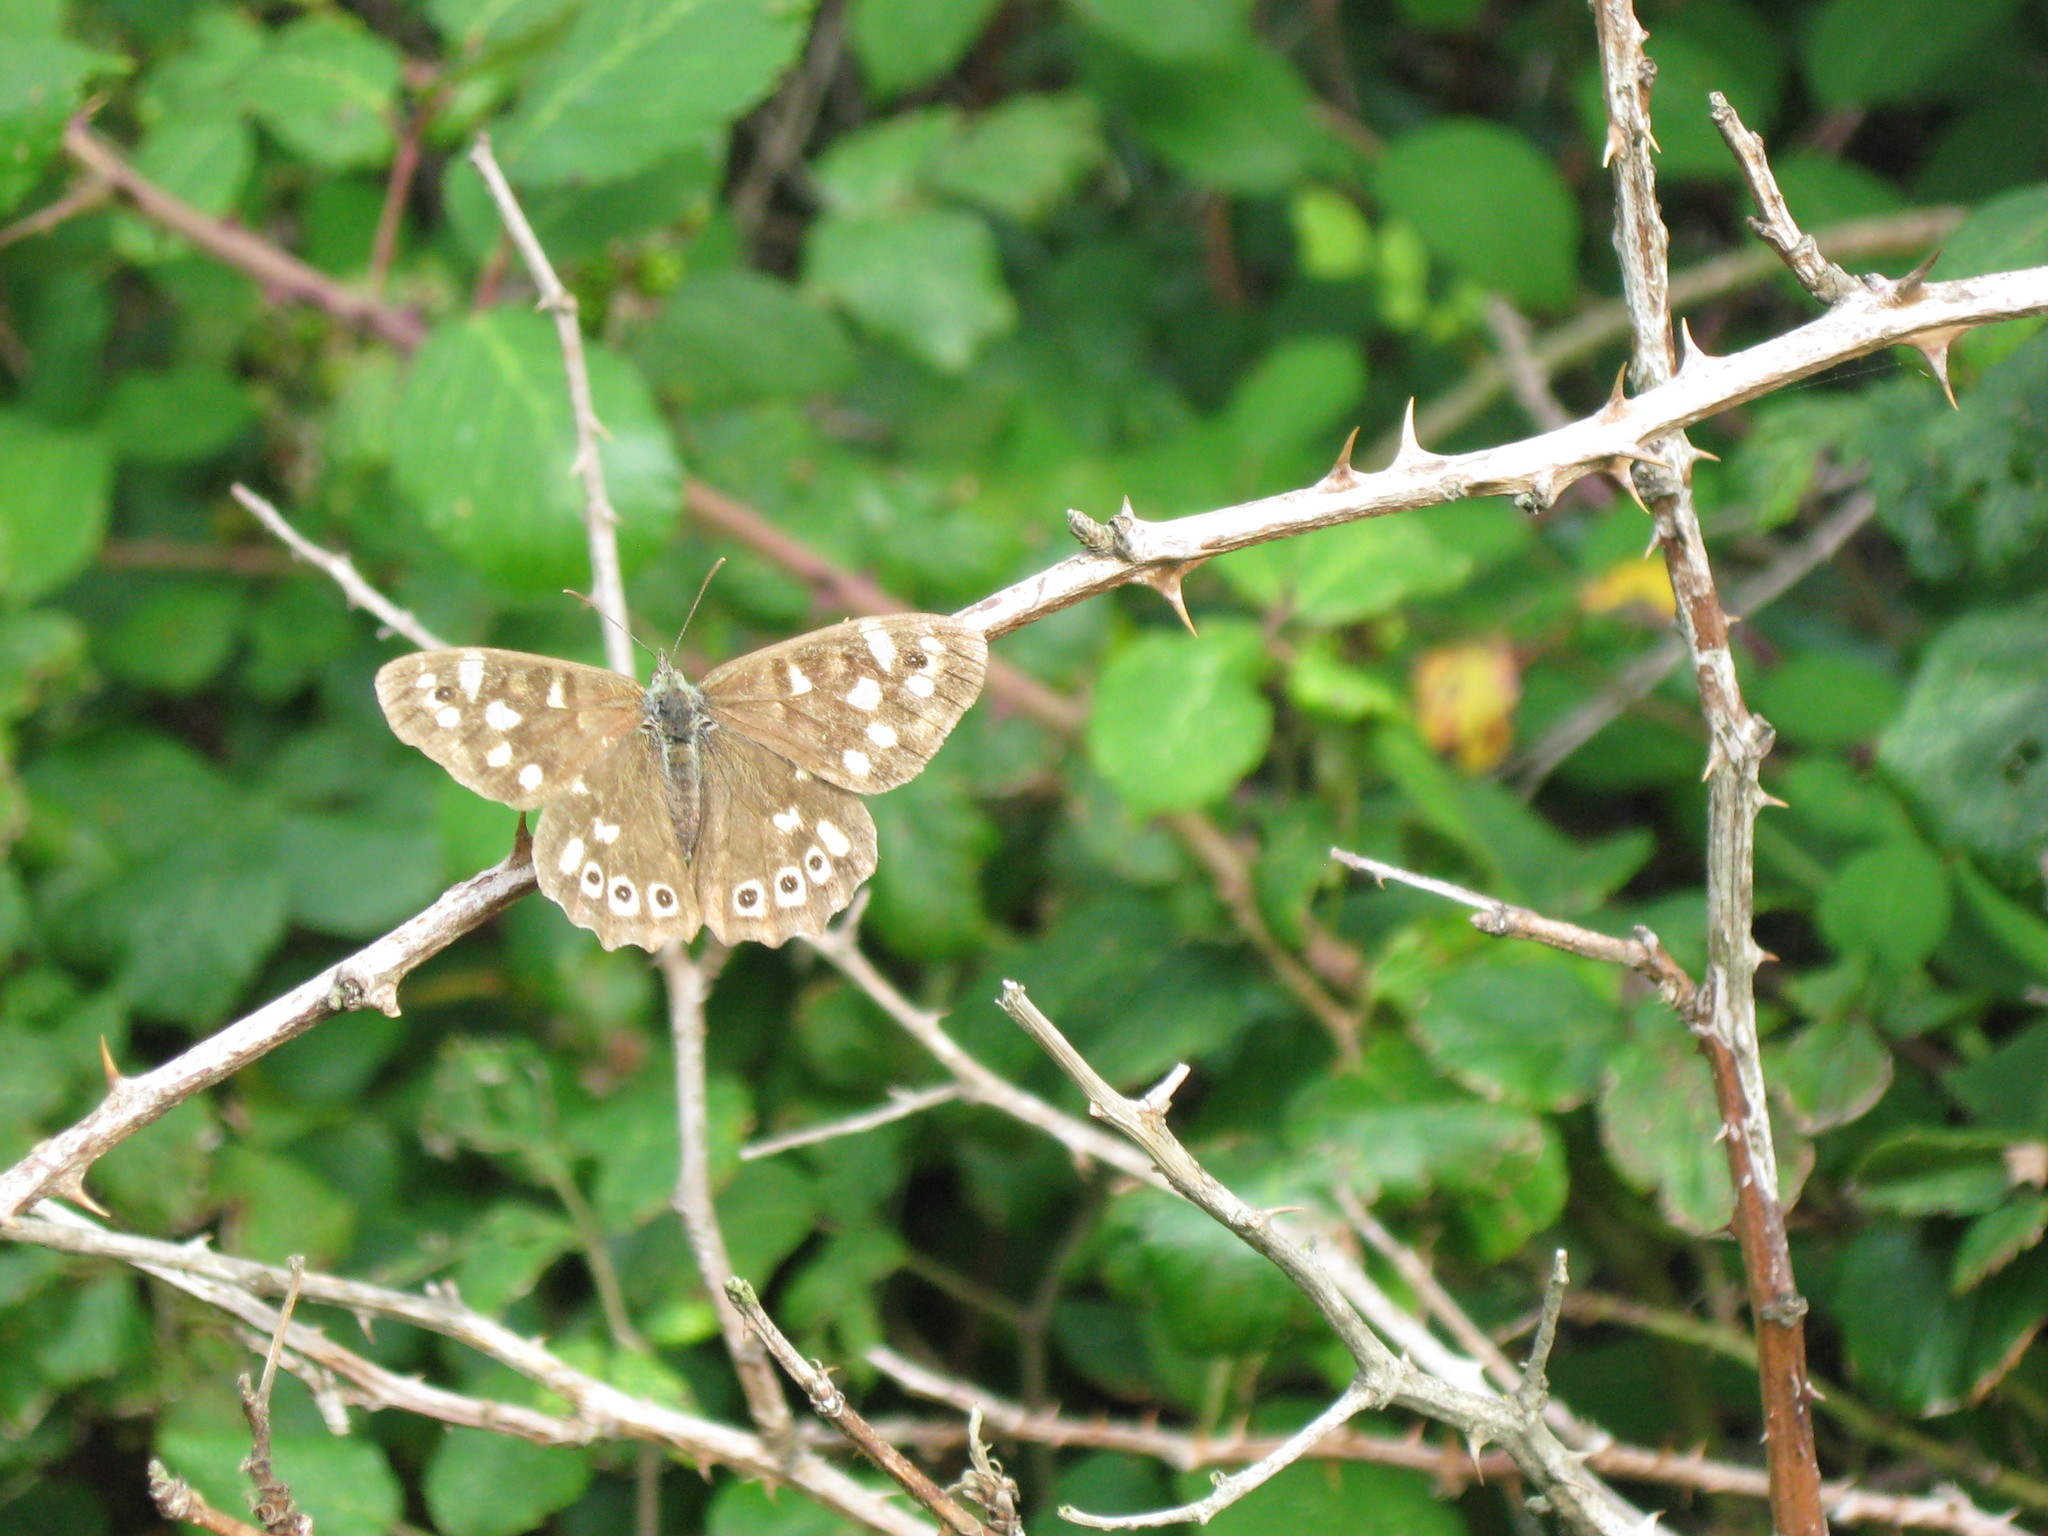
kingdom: Animalia
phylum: Arthropoda
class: Insecta
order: Lepidoptera
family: Nymphalidae
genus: Pararge
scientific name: Pararge aegeria
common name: Speckled wood
